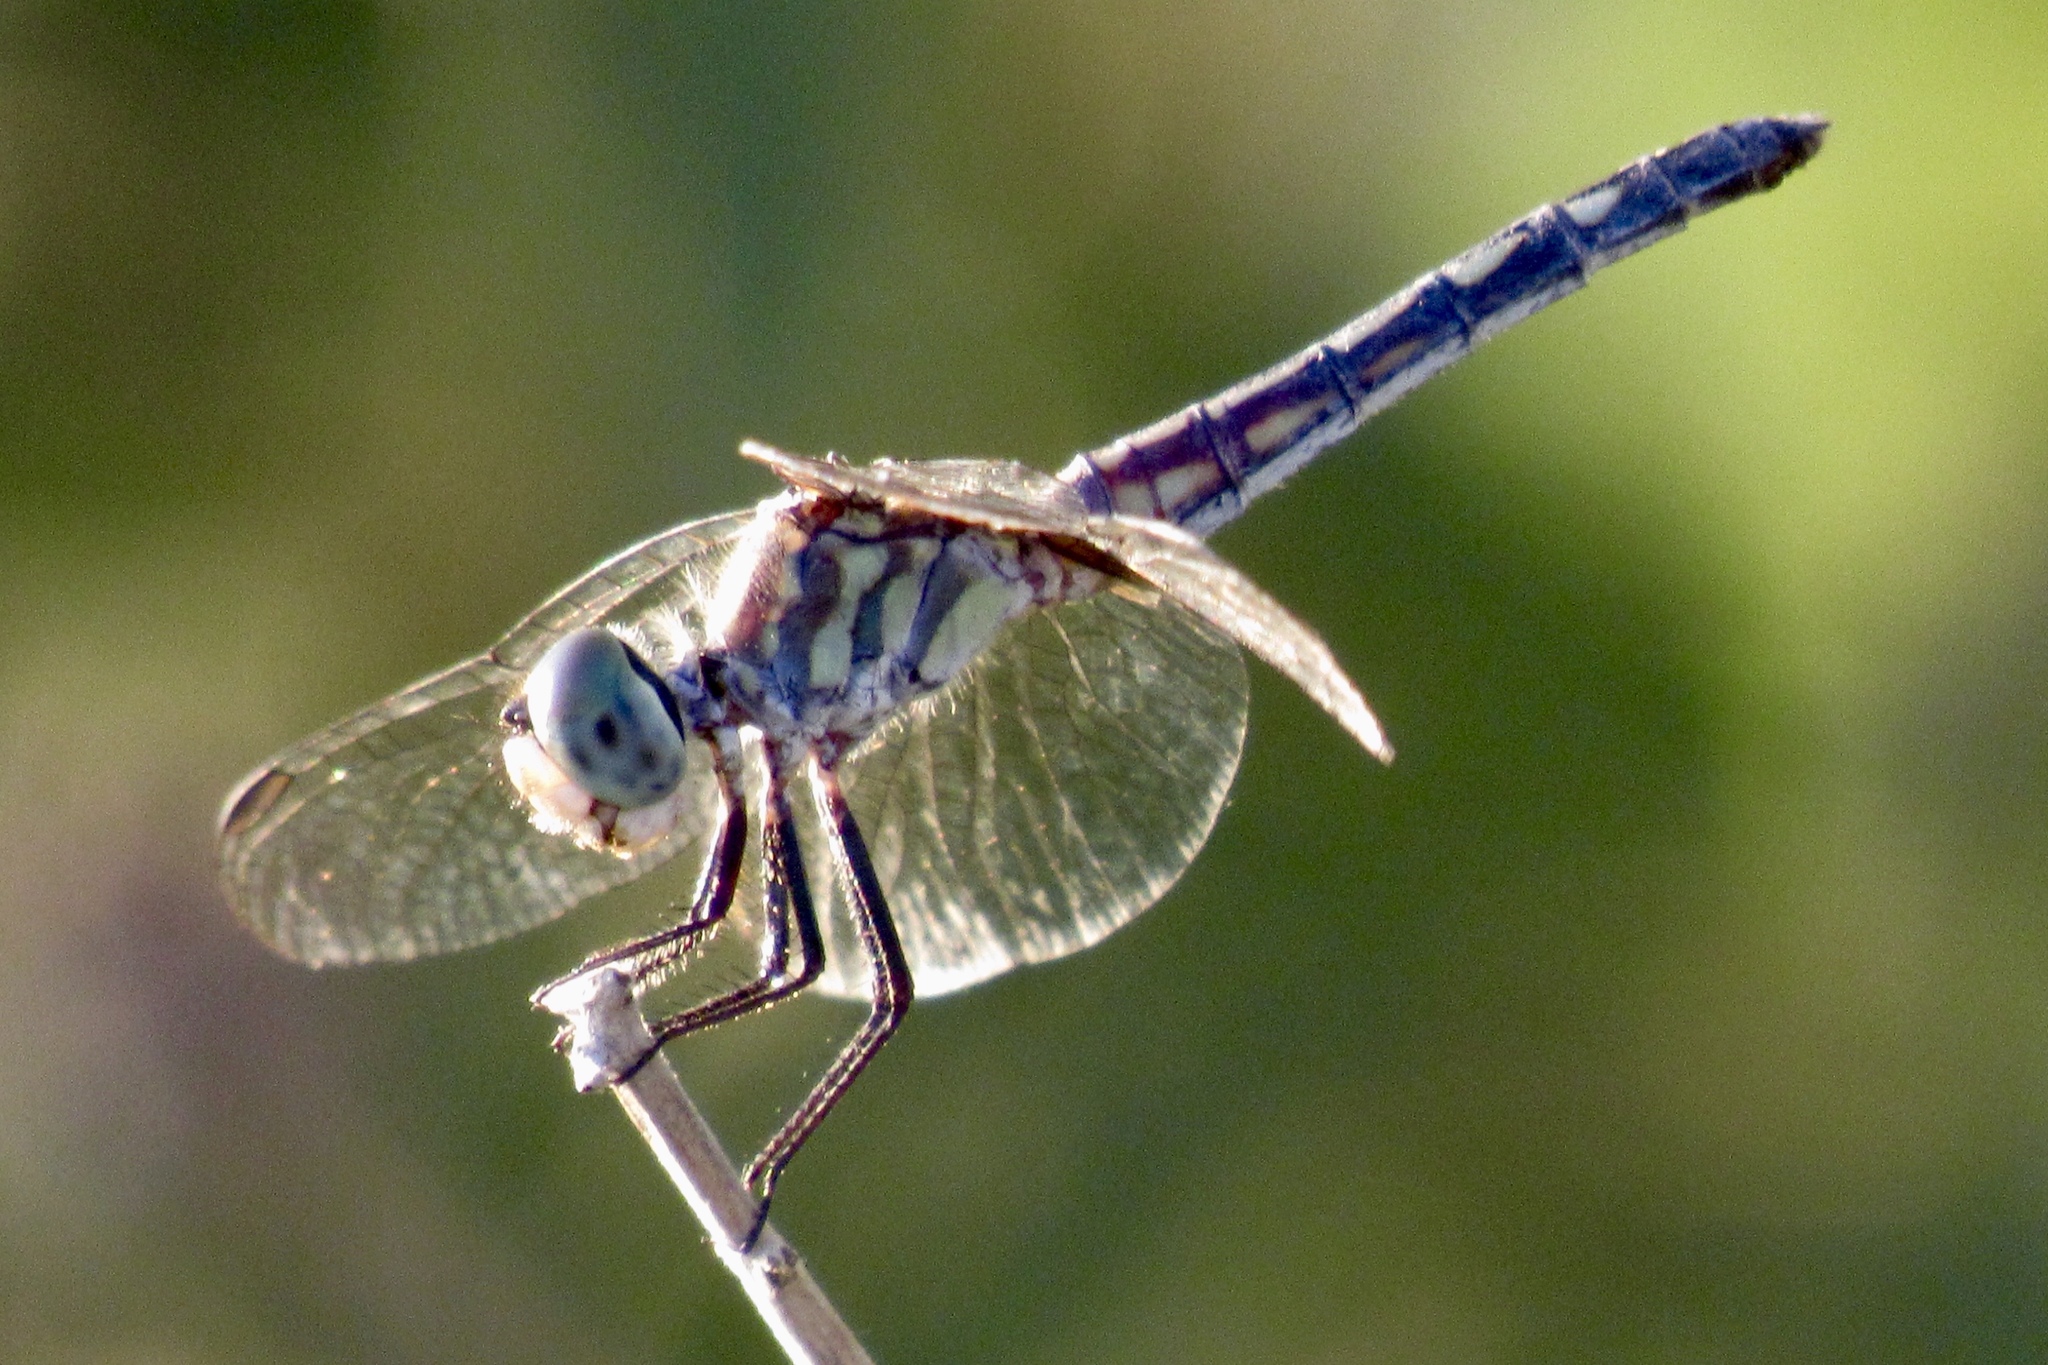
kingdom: Animalia
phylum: Arthropoda
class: Insecta
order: Odonata
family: Libellulidae
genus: Pachydiplax
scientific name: Pachydiplax longipennis
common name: Blue dasher
